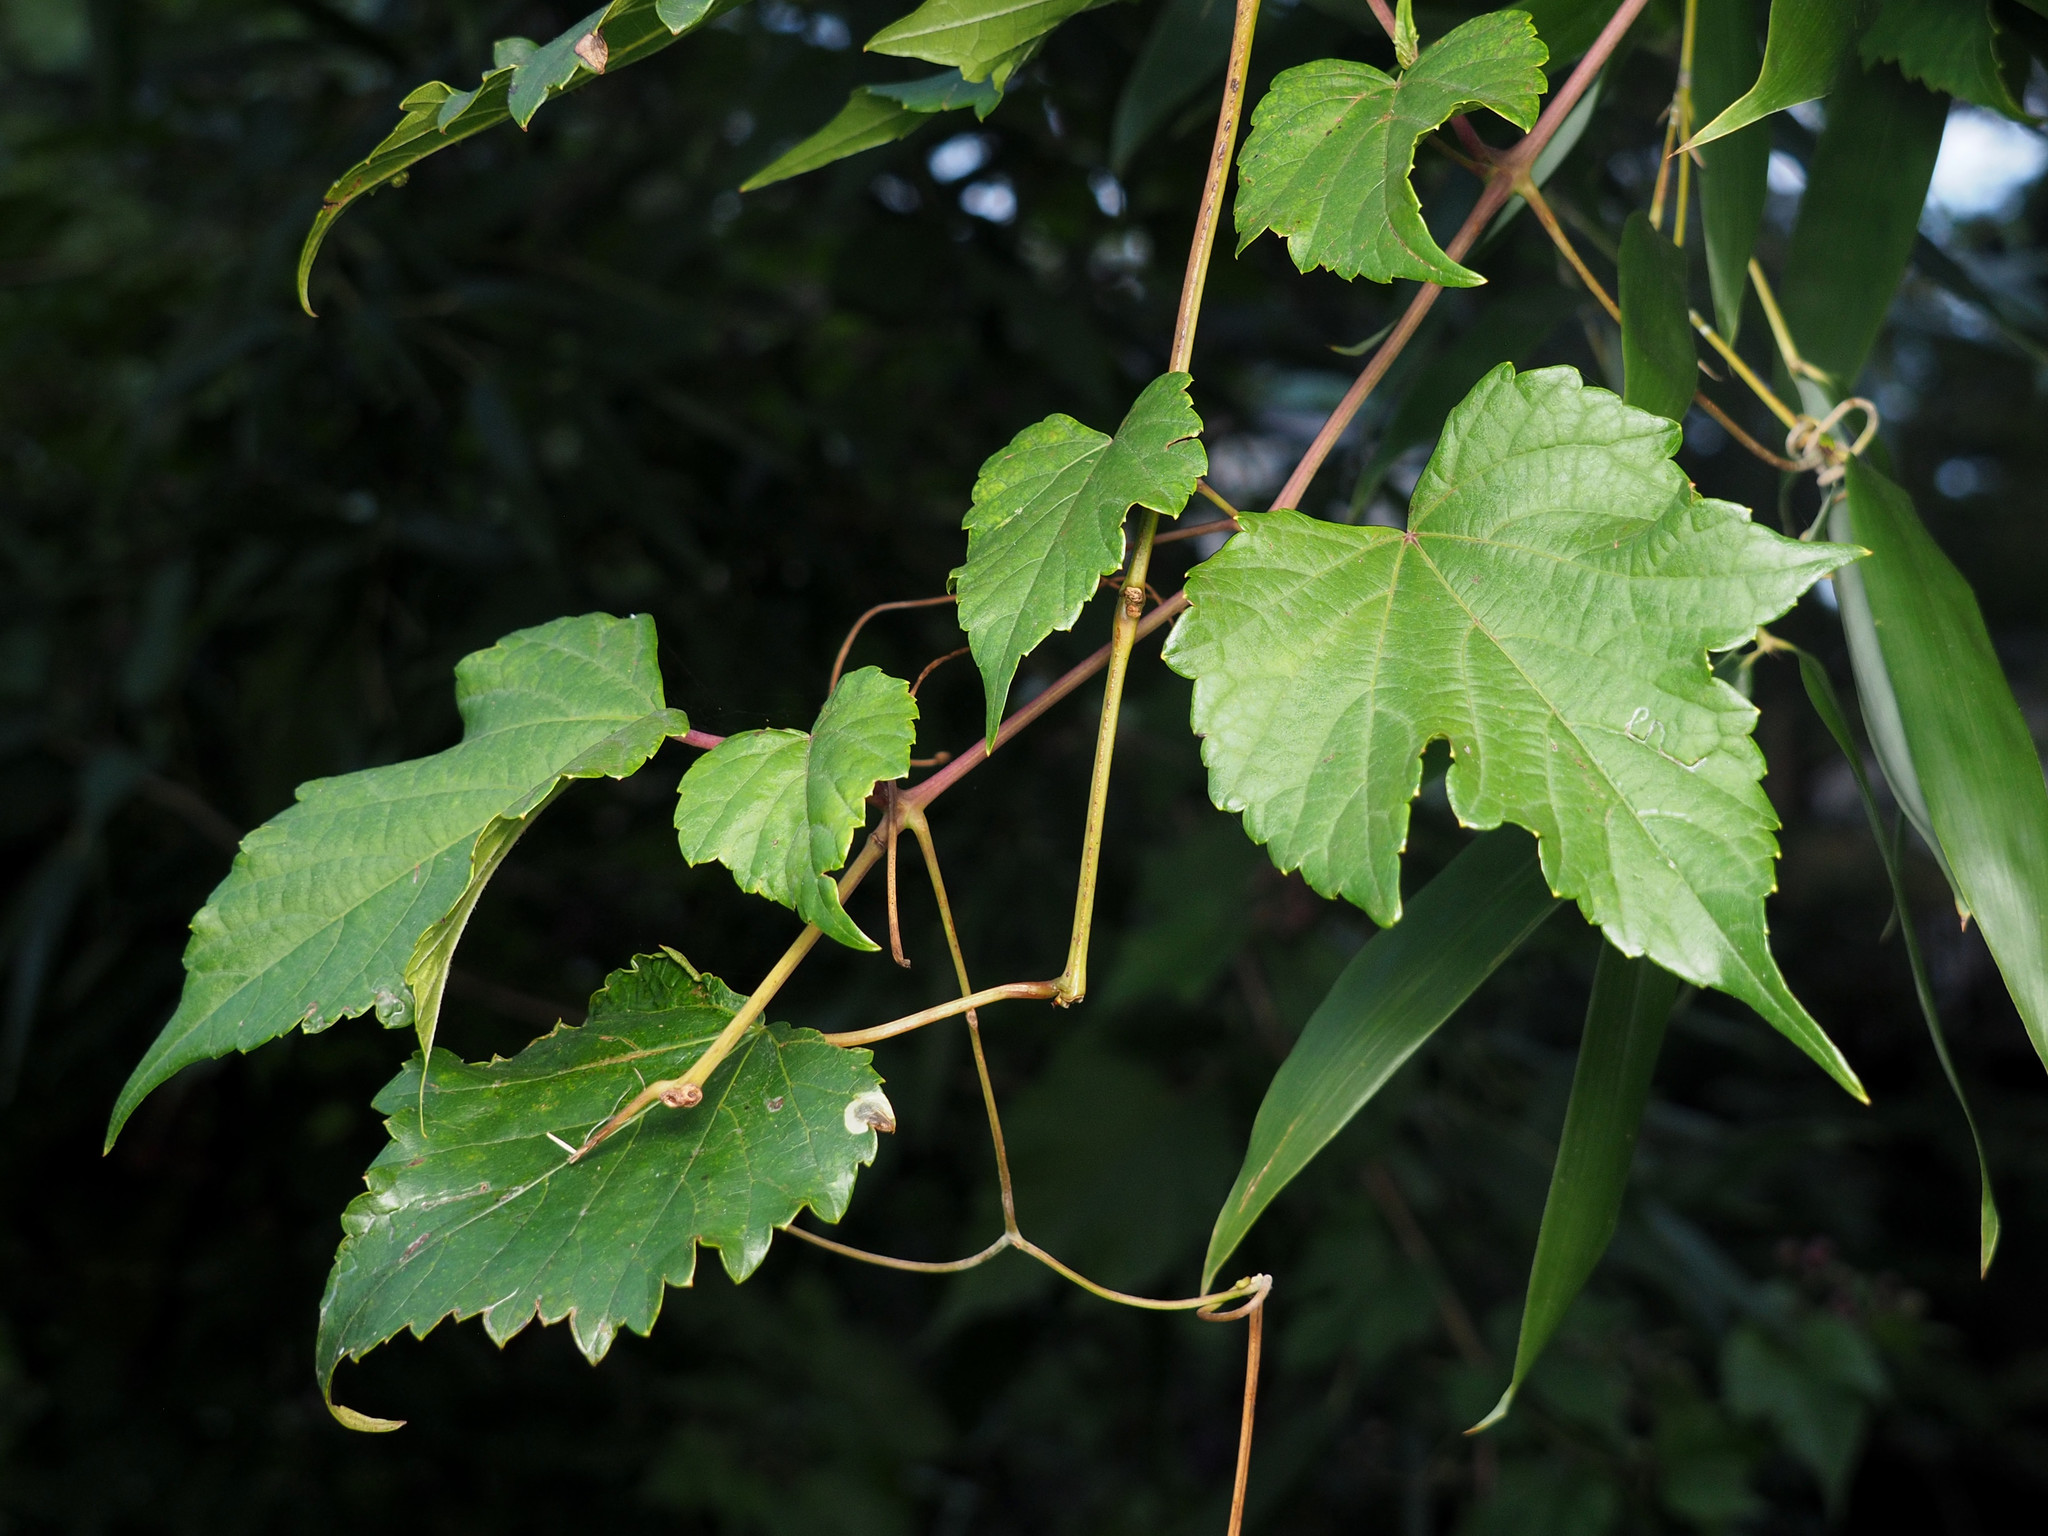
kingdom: Plantae
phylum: Tracheophyta
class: Magnoliopsida
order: Vitales
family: Vitaceae
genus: Ampelopsis
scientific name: Ampelopsis glandulosa
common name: Amur peppervine
